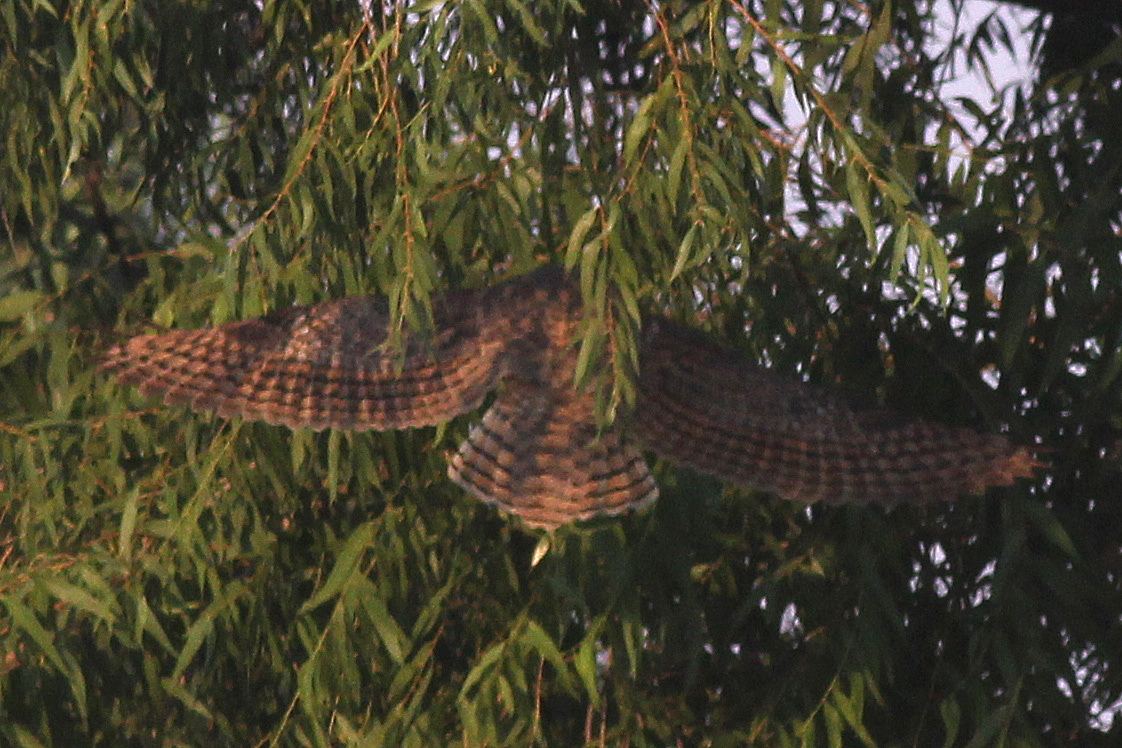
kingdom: Animalia
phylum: Chordata
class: Aves
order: Strigiformes
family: Strigidae
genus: Bubo
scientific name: Bubo virginianus
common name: Great horned owl
